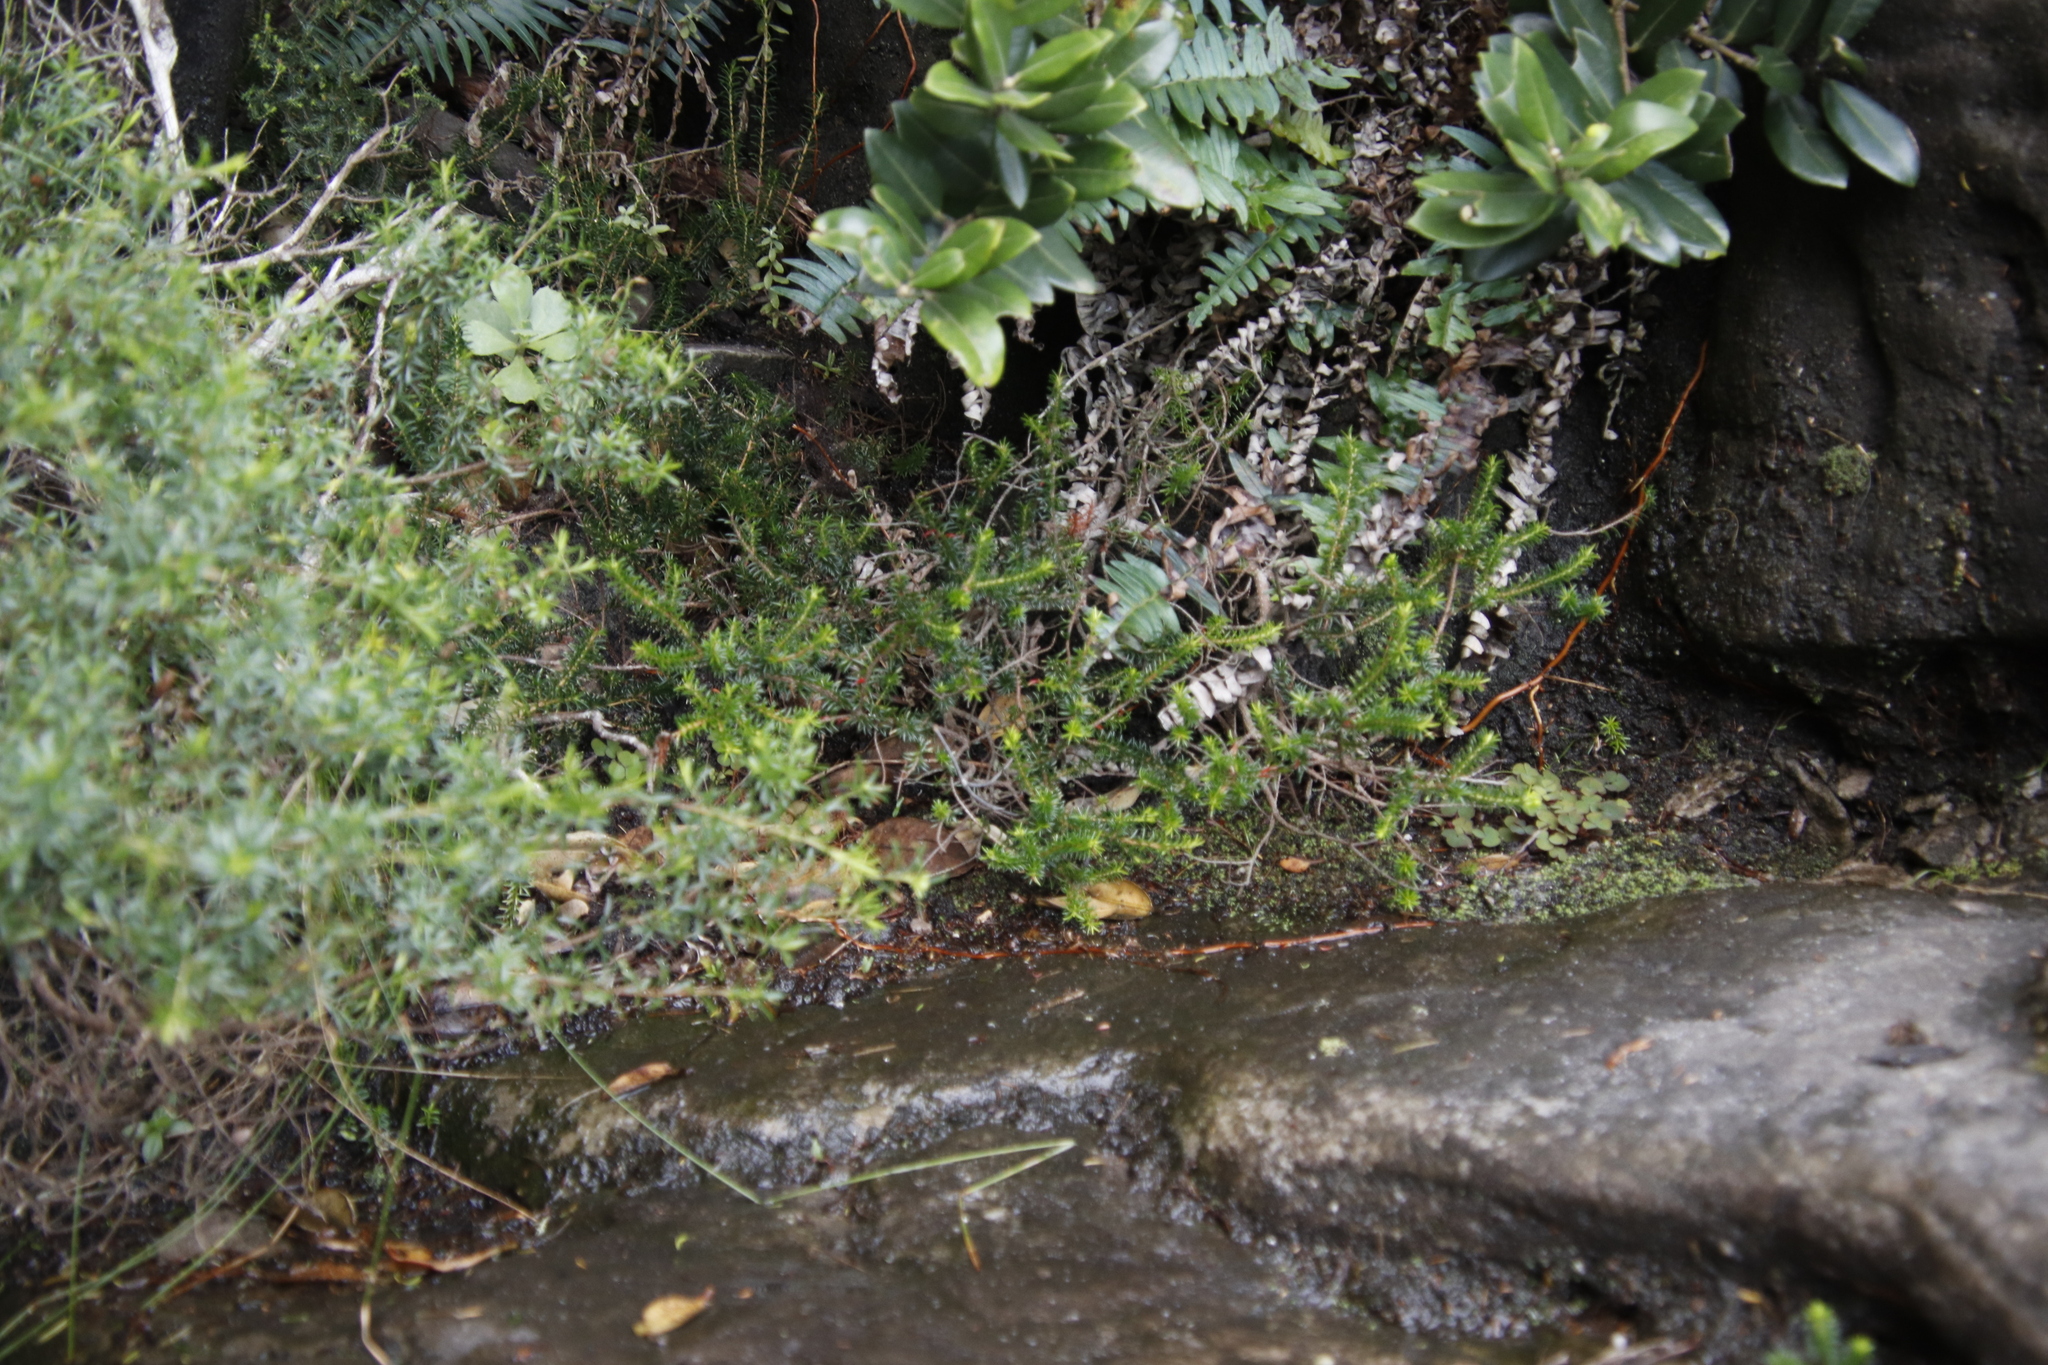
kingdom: Plantae
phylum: Tracheophyta
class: Magnoliopsida
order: Ericales
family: Ericaceae
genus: Erica
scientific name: Erica annectens
